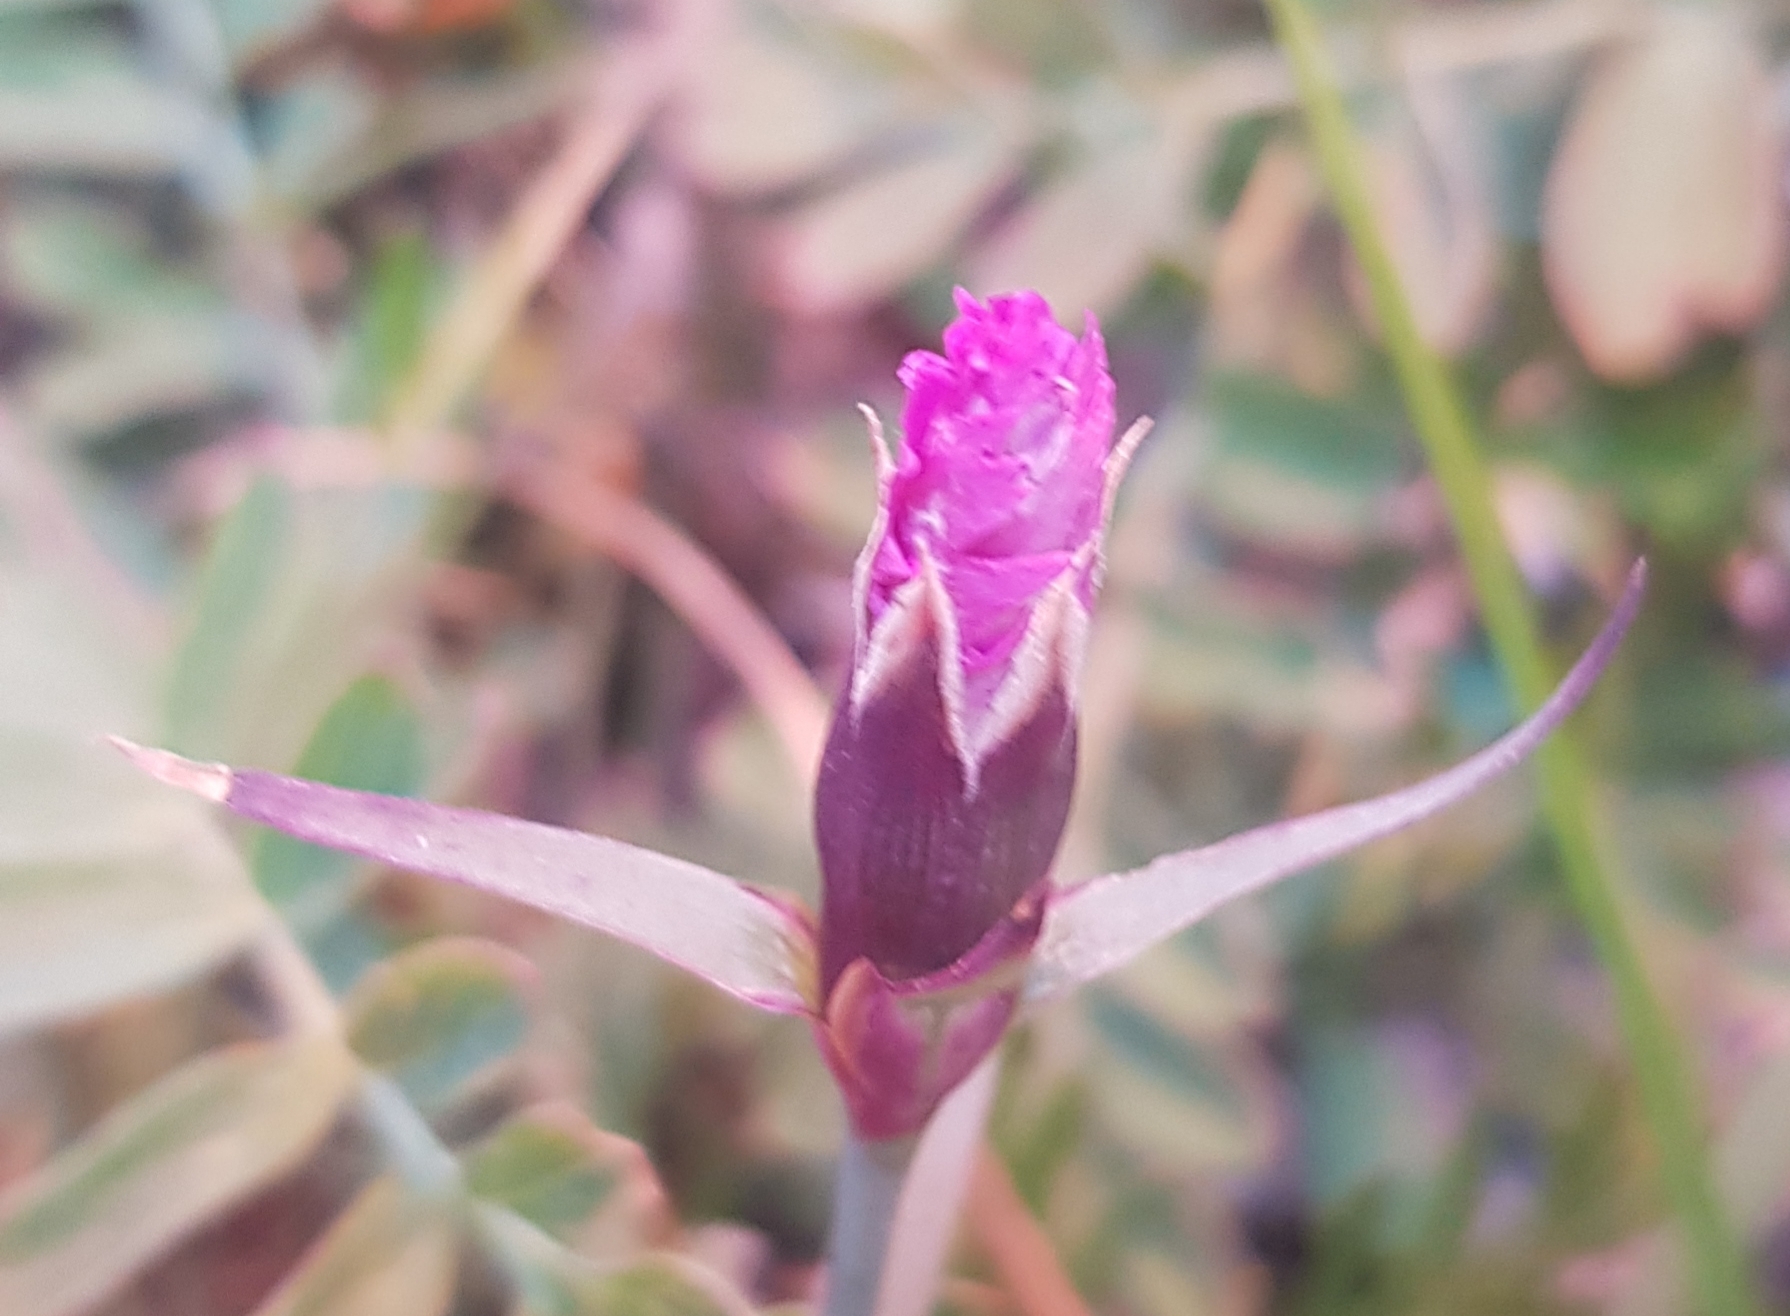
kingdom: Plantae
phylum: Tracheophyta
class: Magnoliopsida
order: Caryophyllales
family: Caryophyllaceae
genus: Dianthus
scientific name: Dianthus chinensis
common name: Rainbow pink
